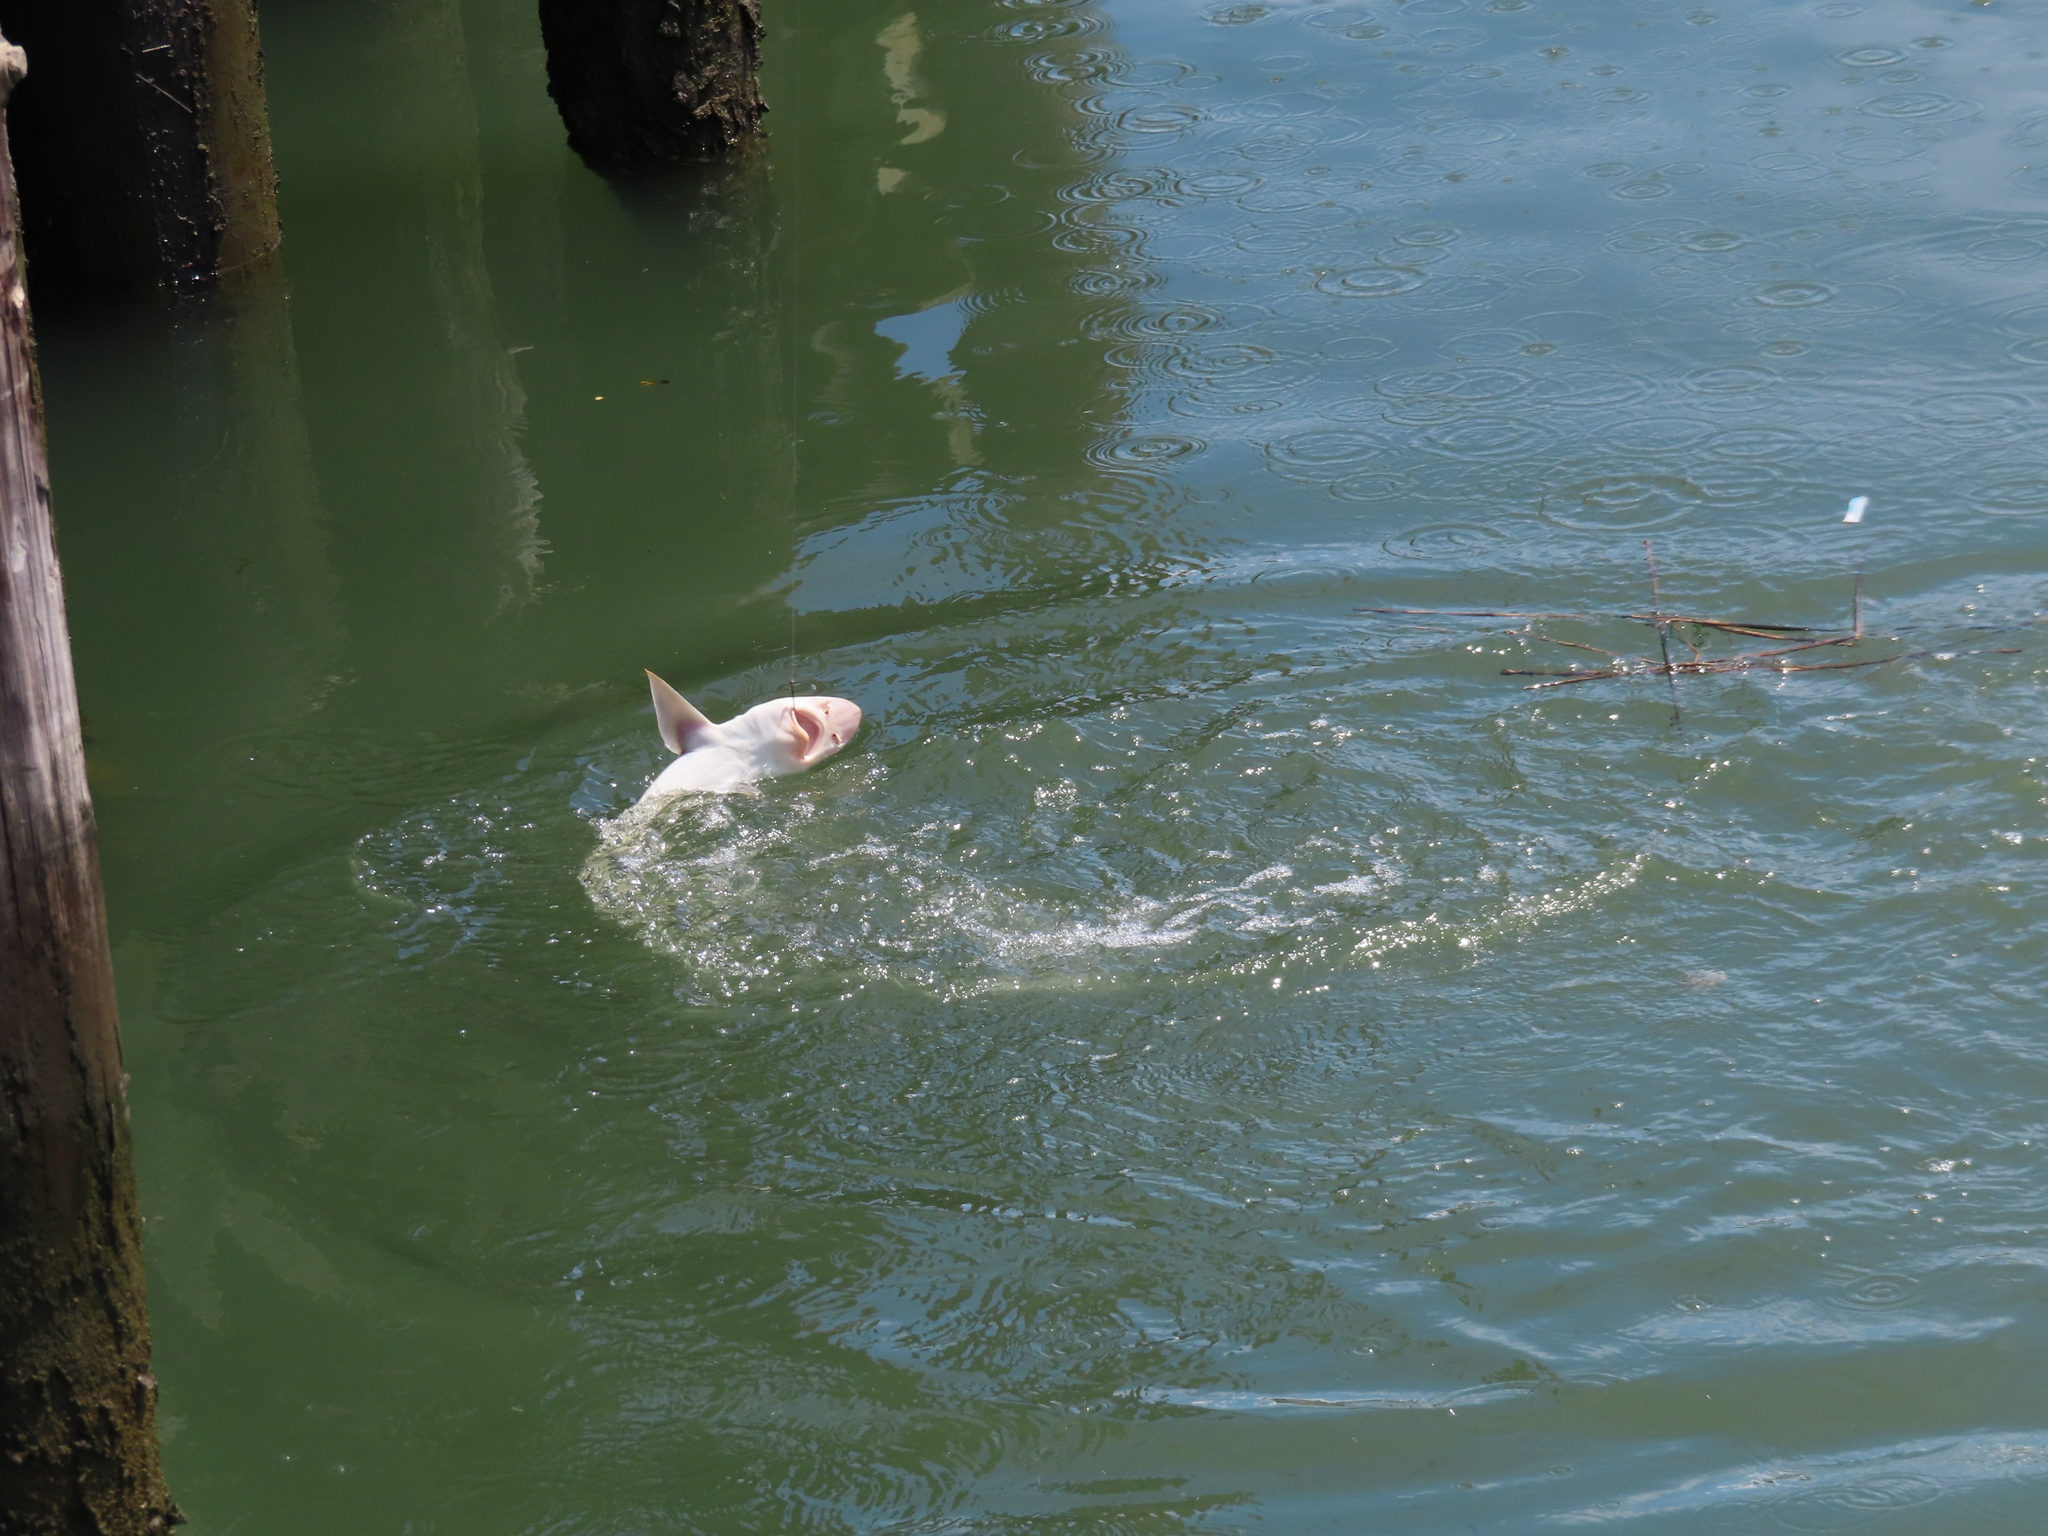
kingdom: Animalia
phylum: Chordata
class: Elasmobranchii
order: Carcharhiniformes
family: Triakidae
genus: Mustelus
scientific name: Mustelus canis
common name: Smooth dogfish
